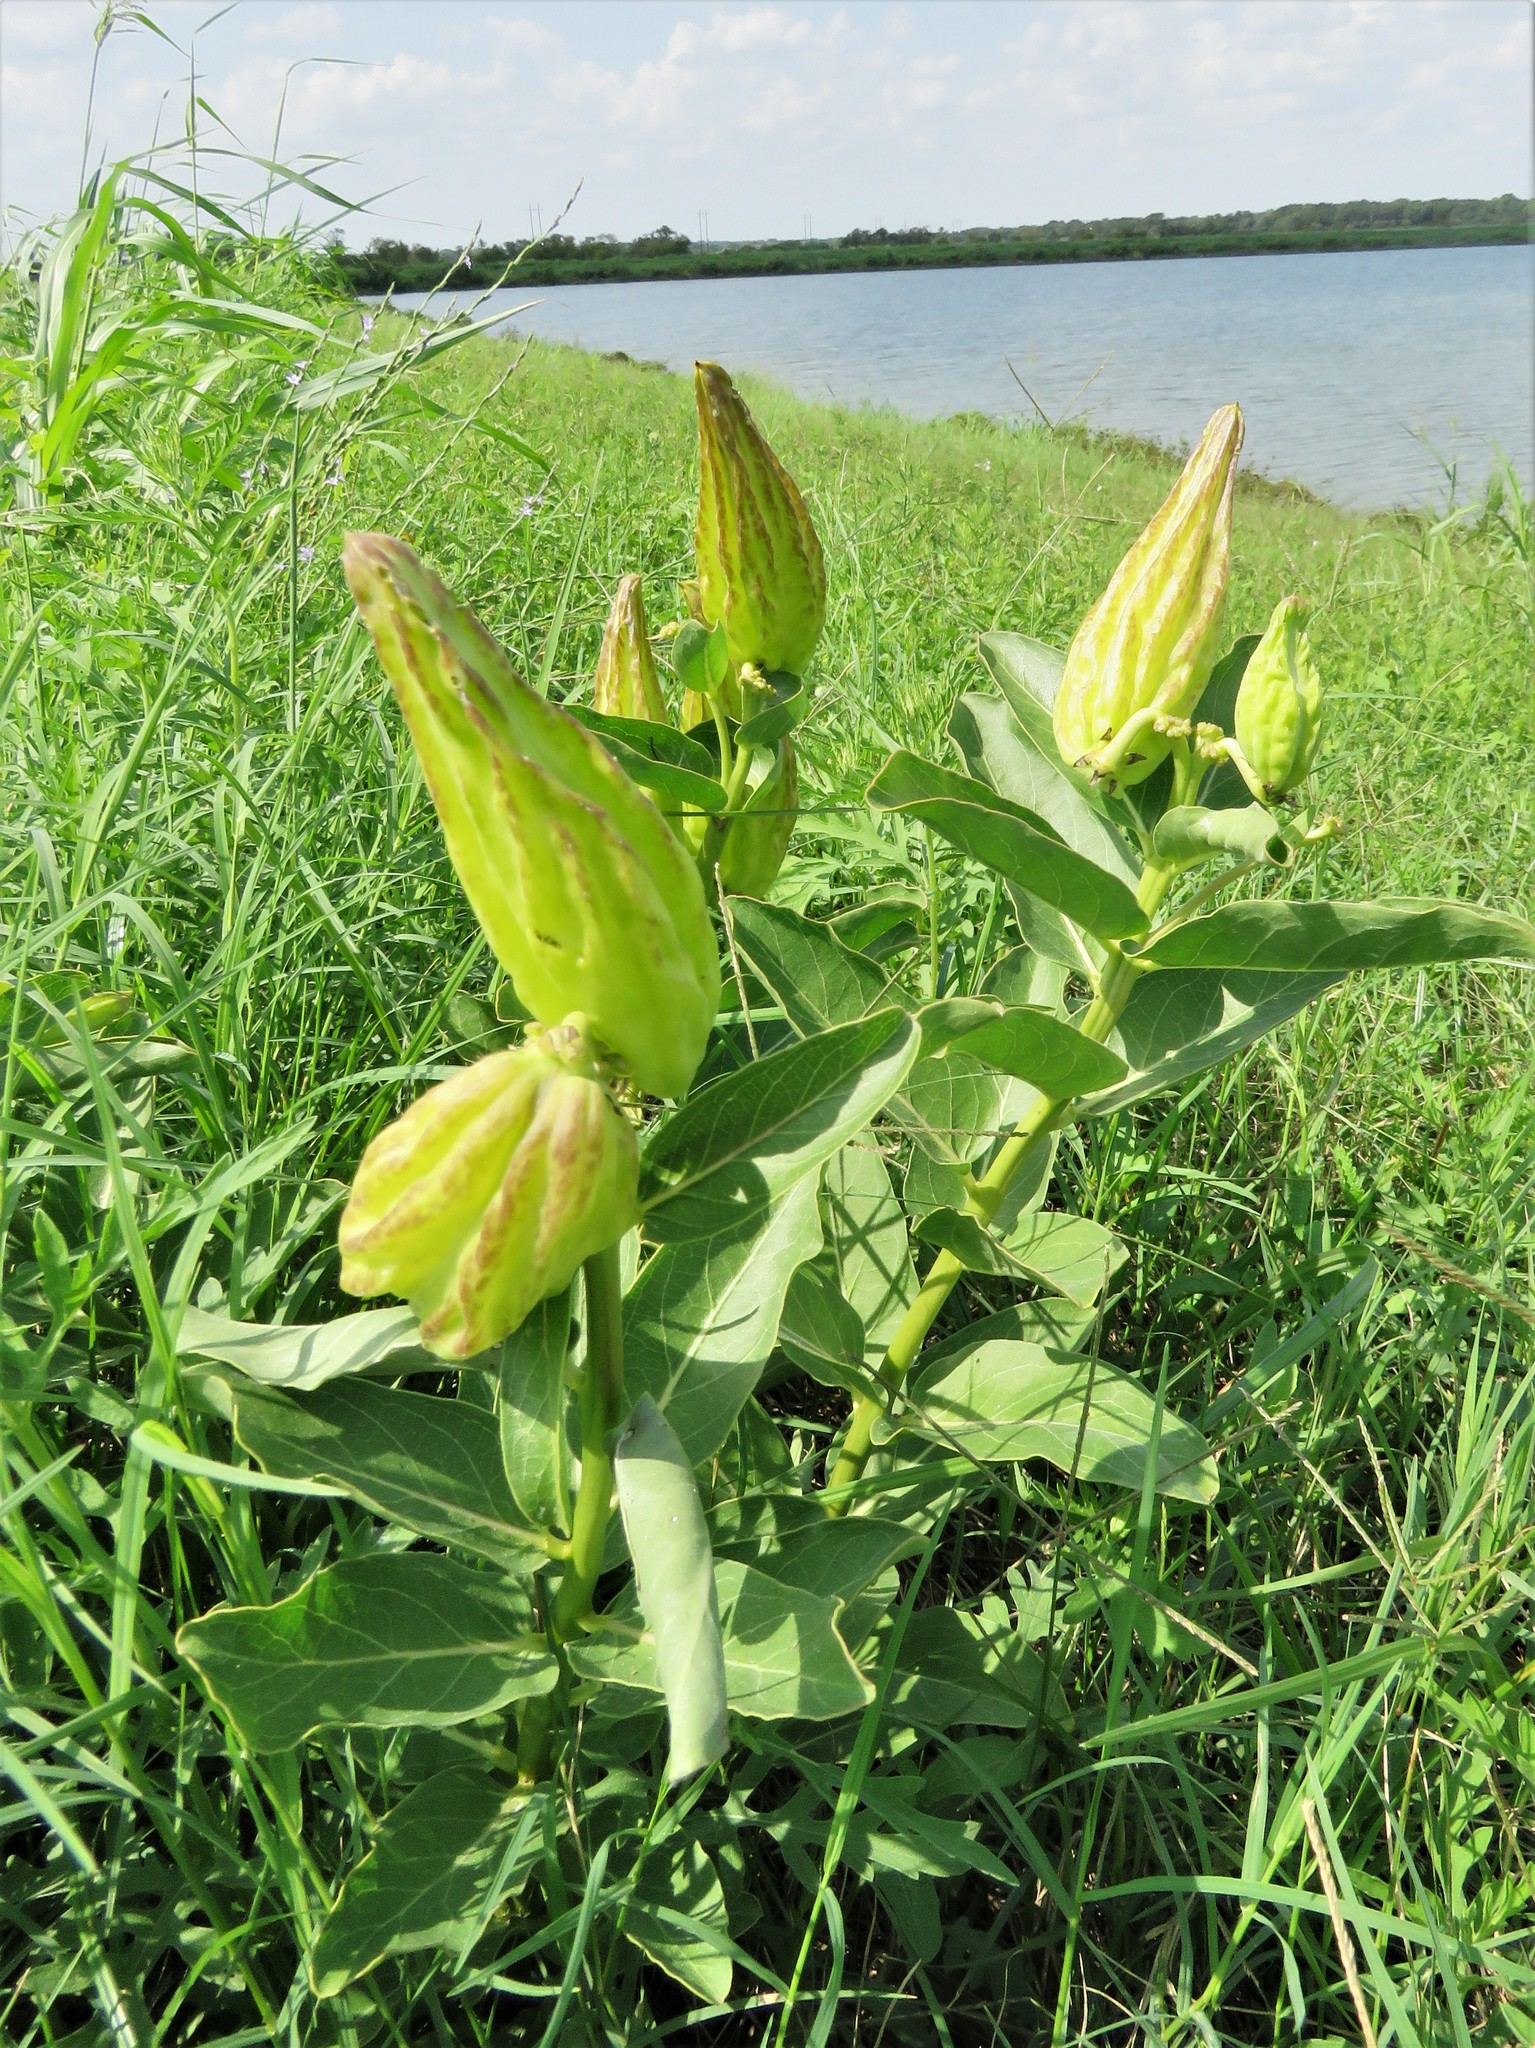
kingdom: Plantae
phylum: Tracheophyta
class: Magnoliopsida
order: Gentianales
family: Apocynaceae
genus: Asclepias
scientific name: Asclepias viridis
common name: Antelope-horns
